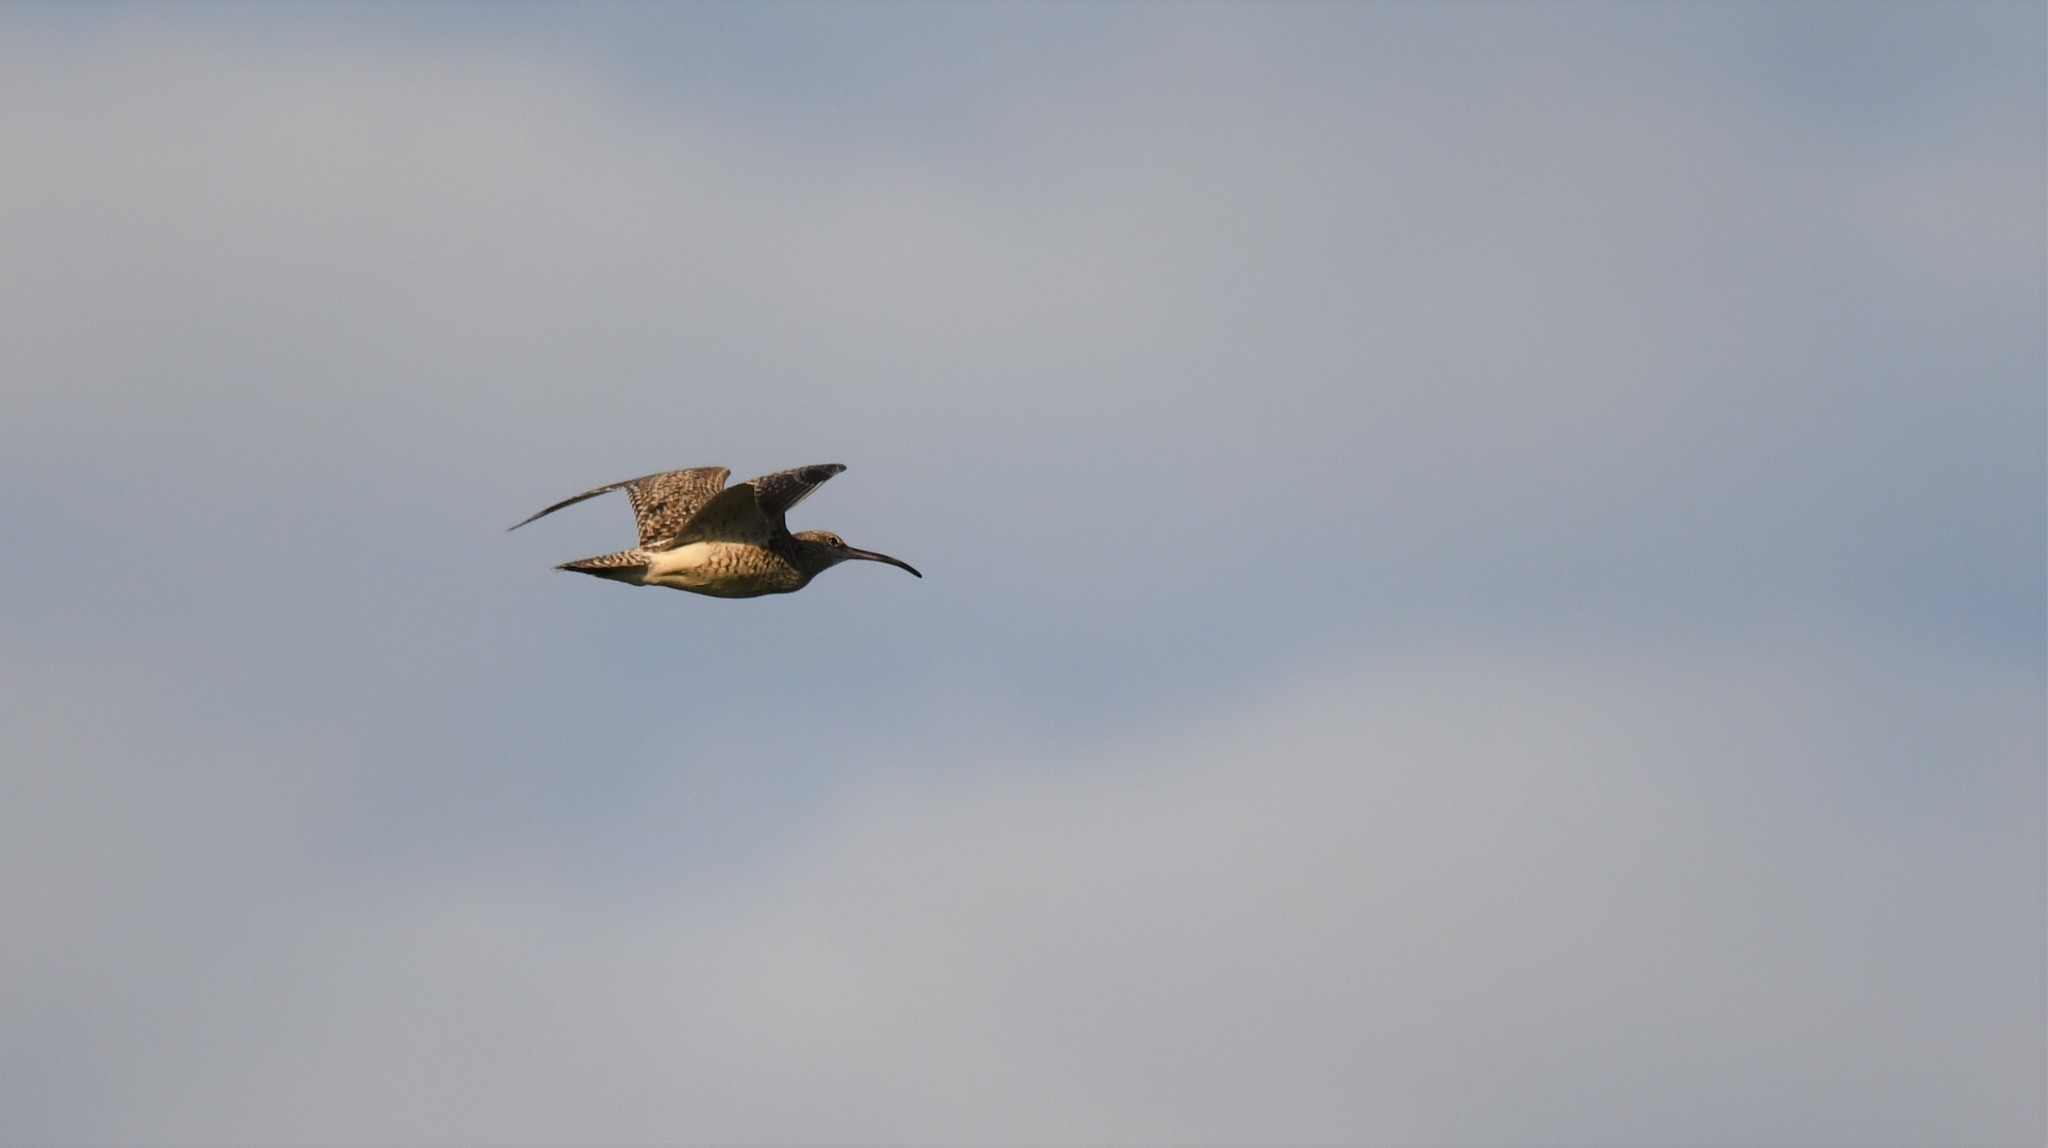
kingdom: Animalia
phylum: Chordata
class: Aves
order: Charadriiformes
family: Scolopacidae
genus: Numenius
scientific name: Numenius phaeopus
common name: Whimbrel
